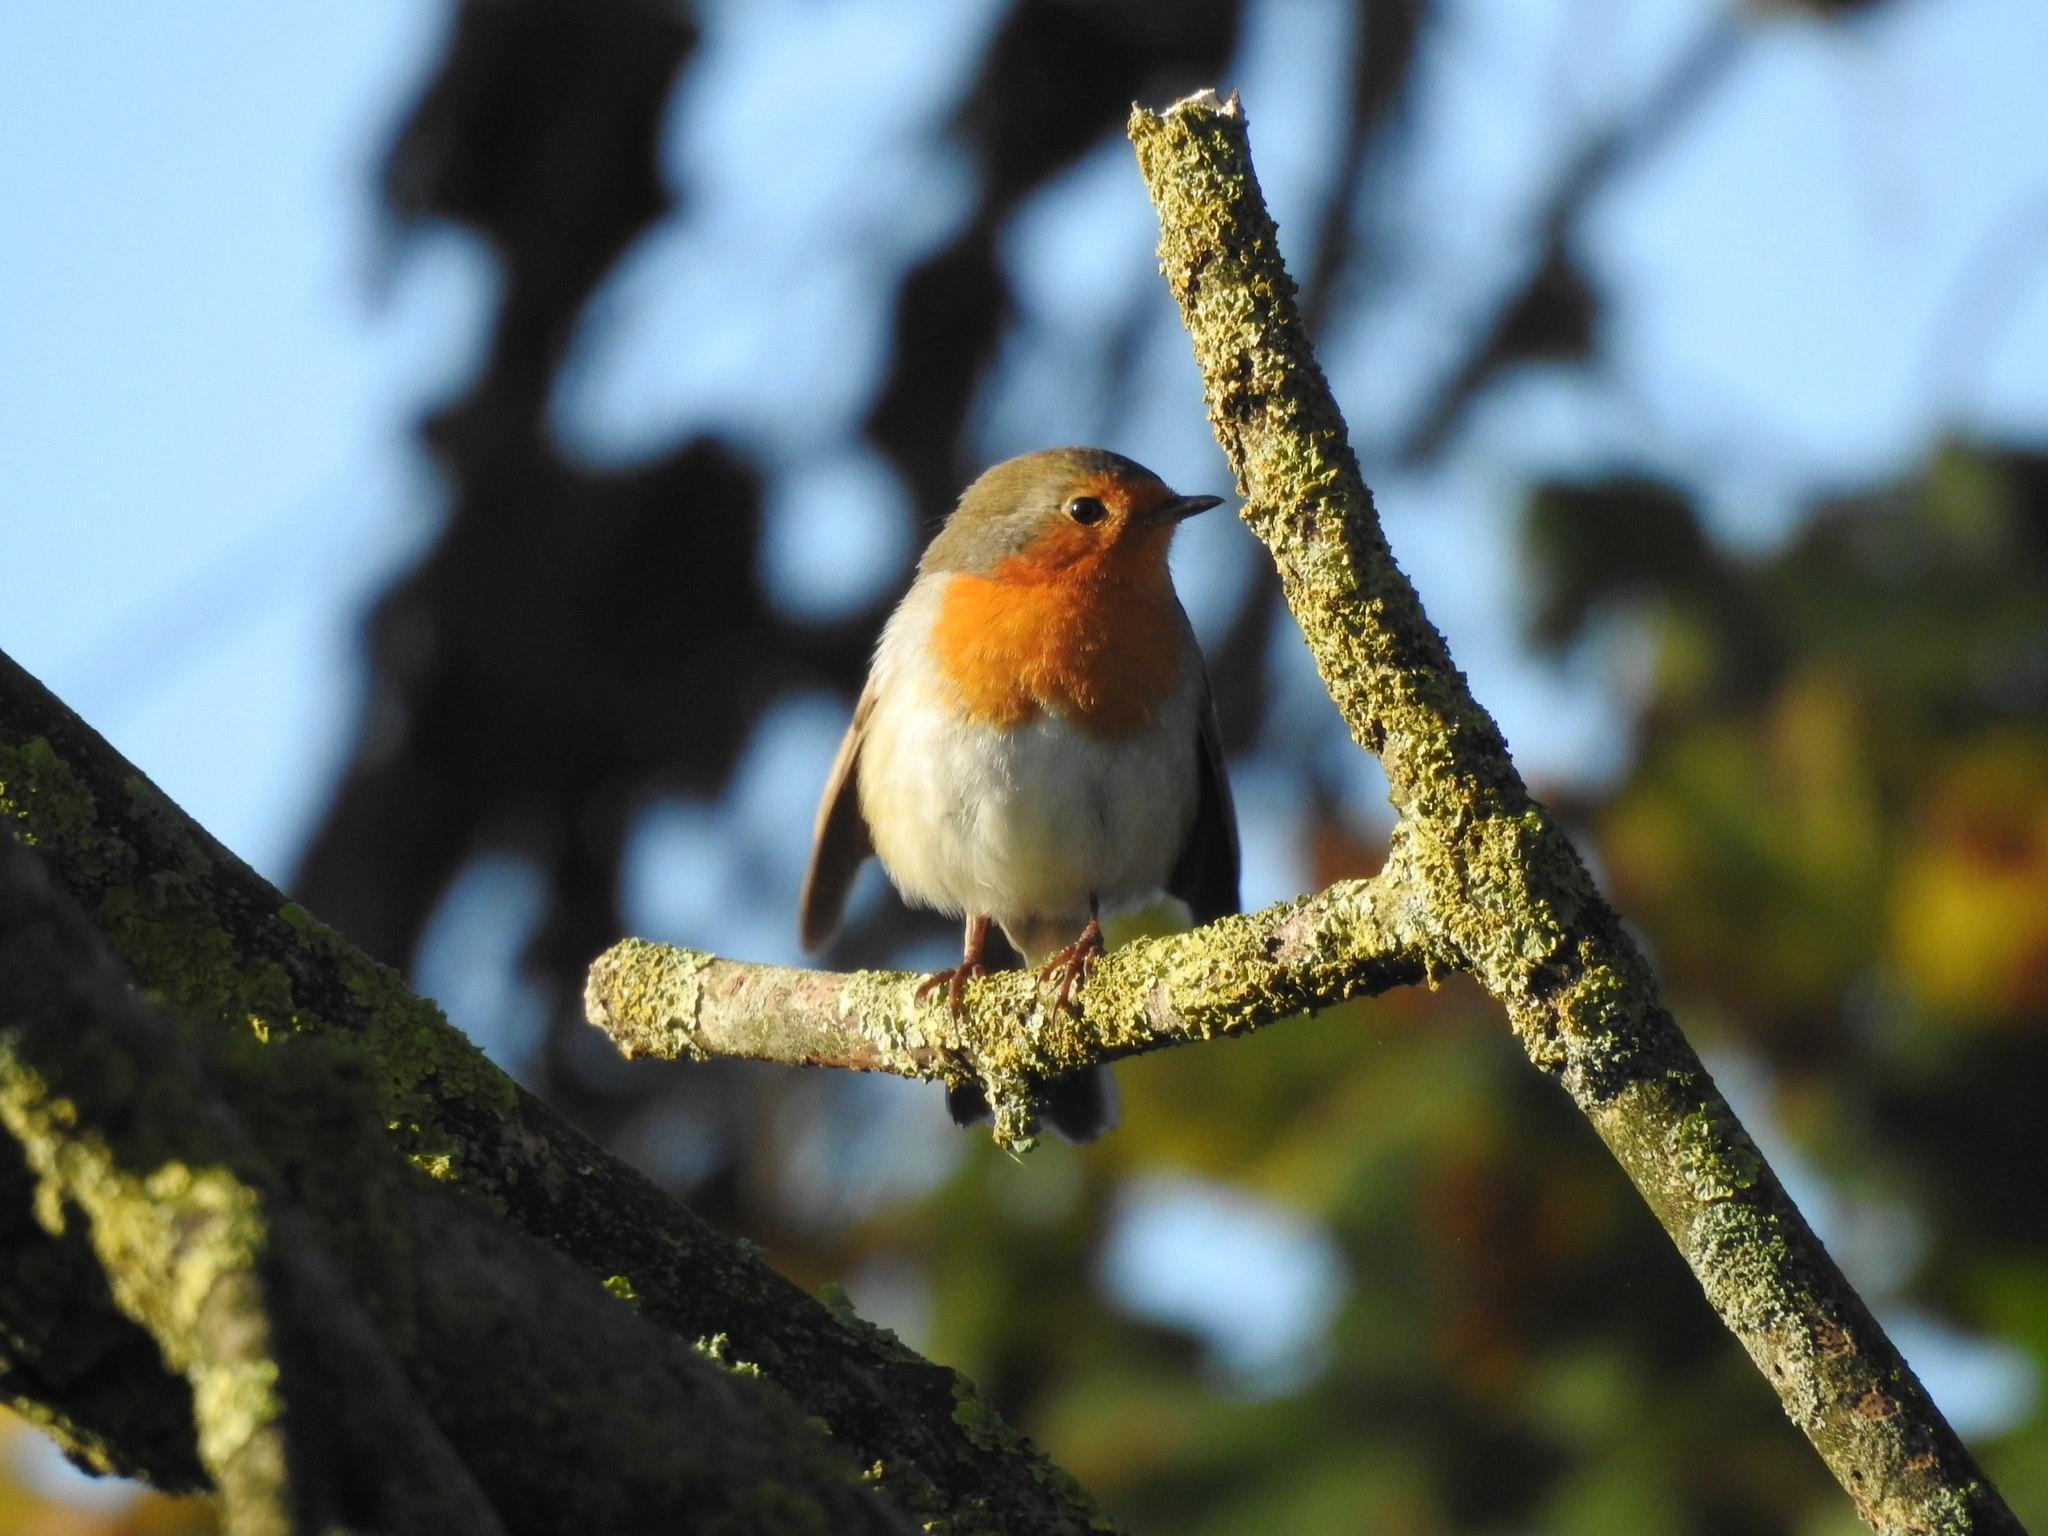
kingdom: Animalia
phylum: Chordata
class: Aves
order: Passeriformes
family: Muscicapidae
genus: Erithacus
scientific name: Erithacus rubecula
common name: European robin
